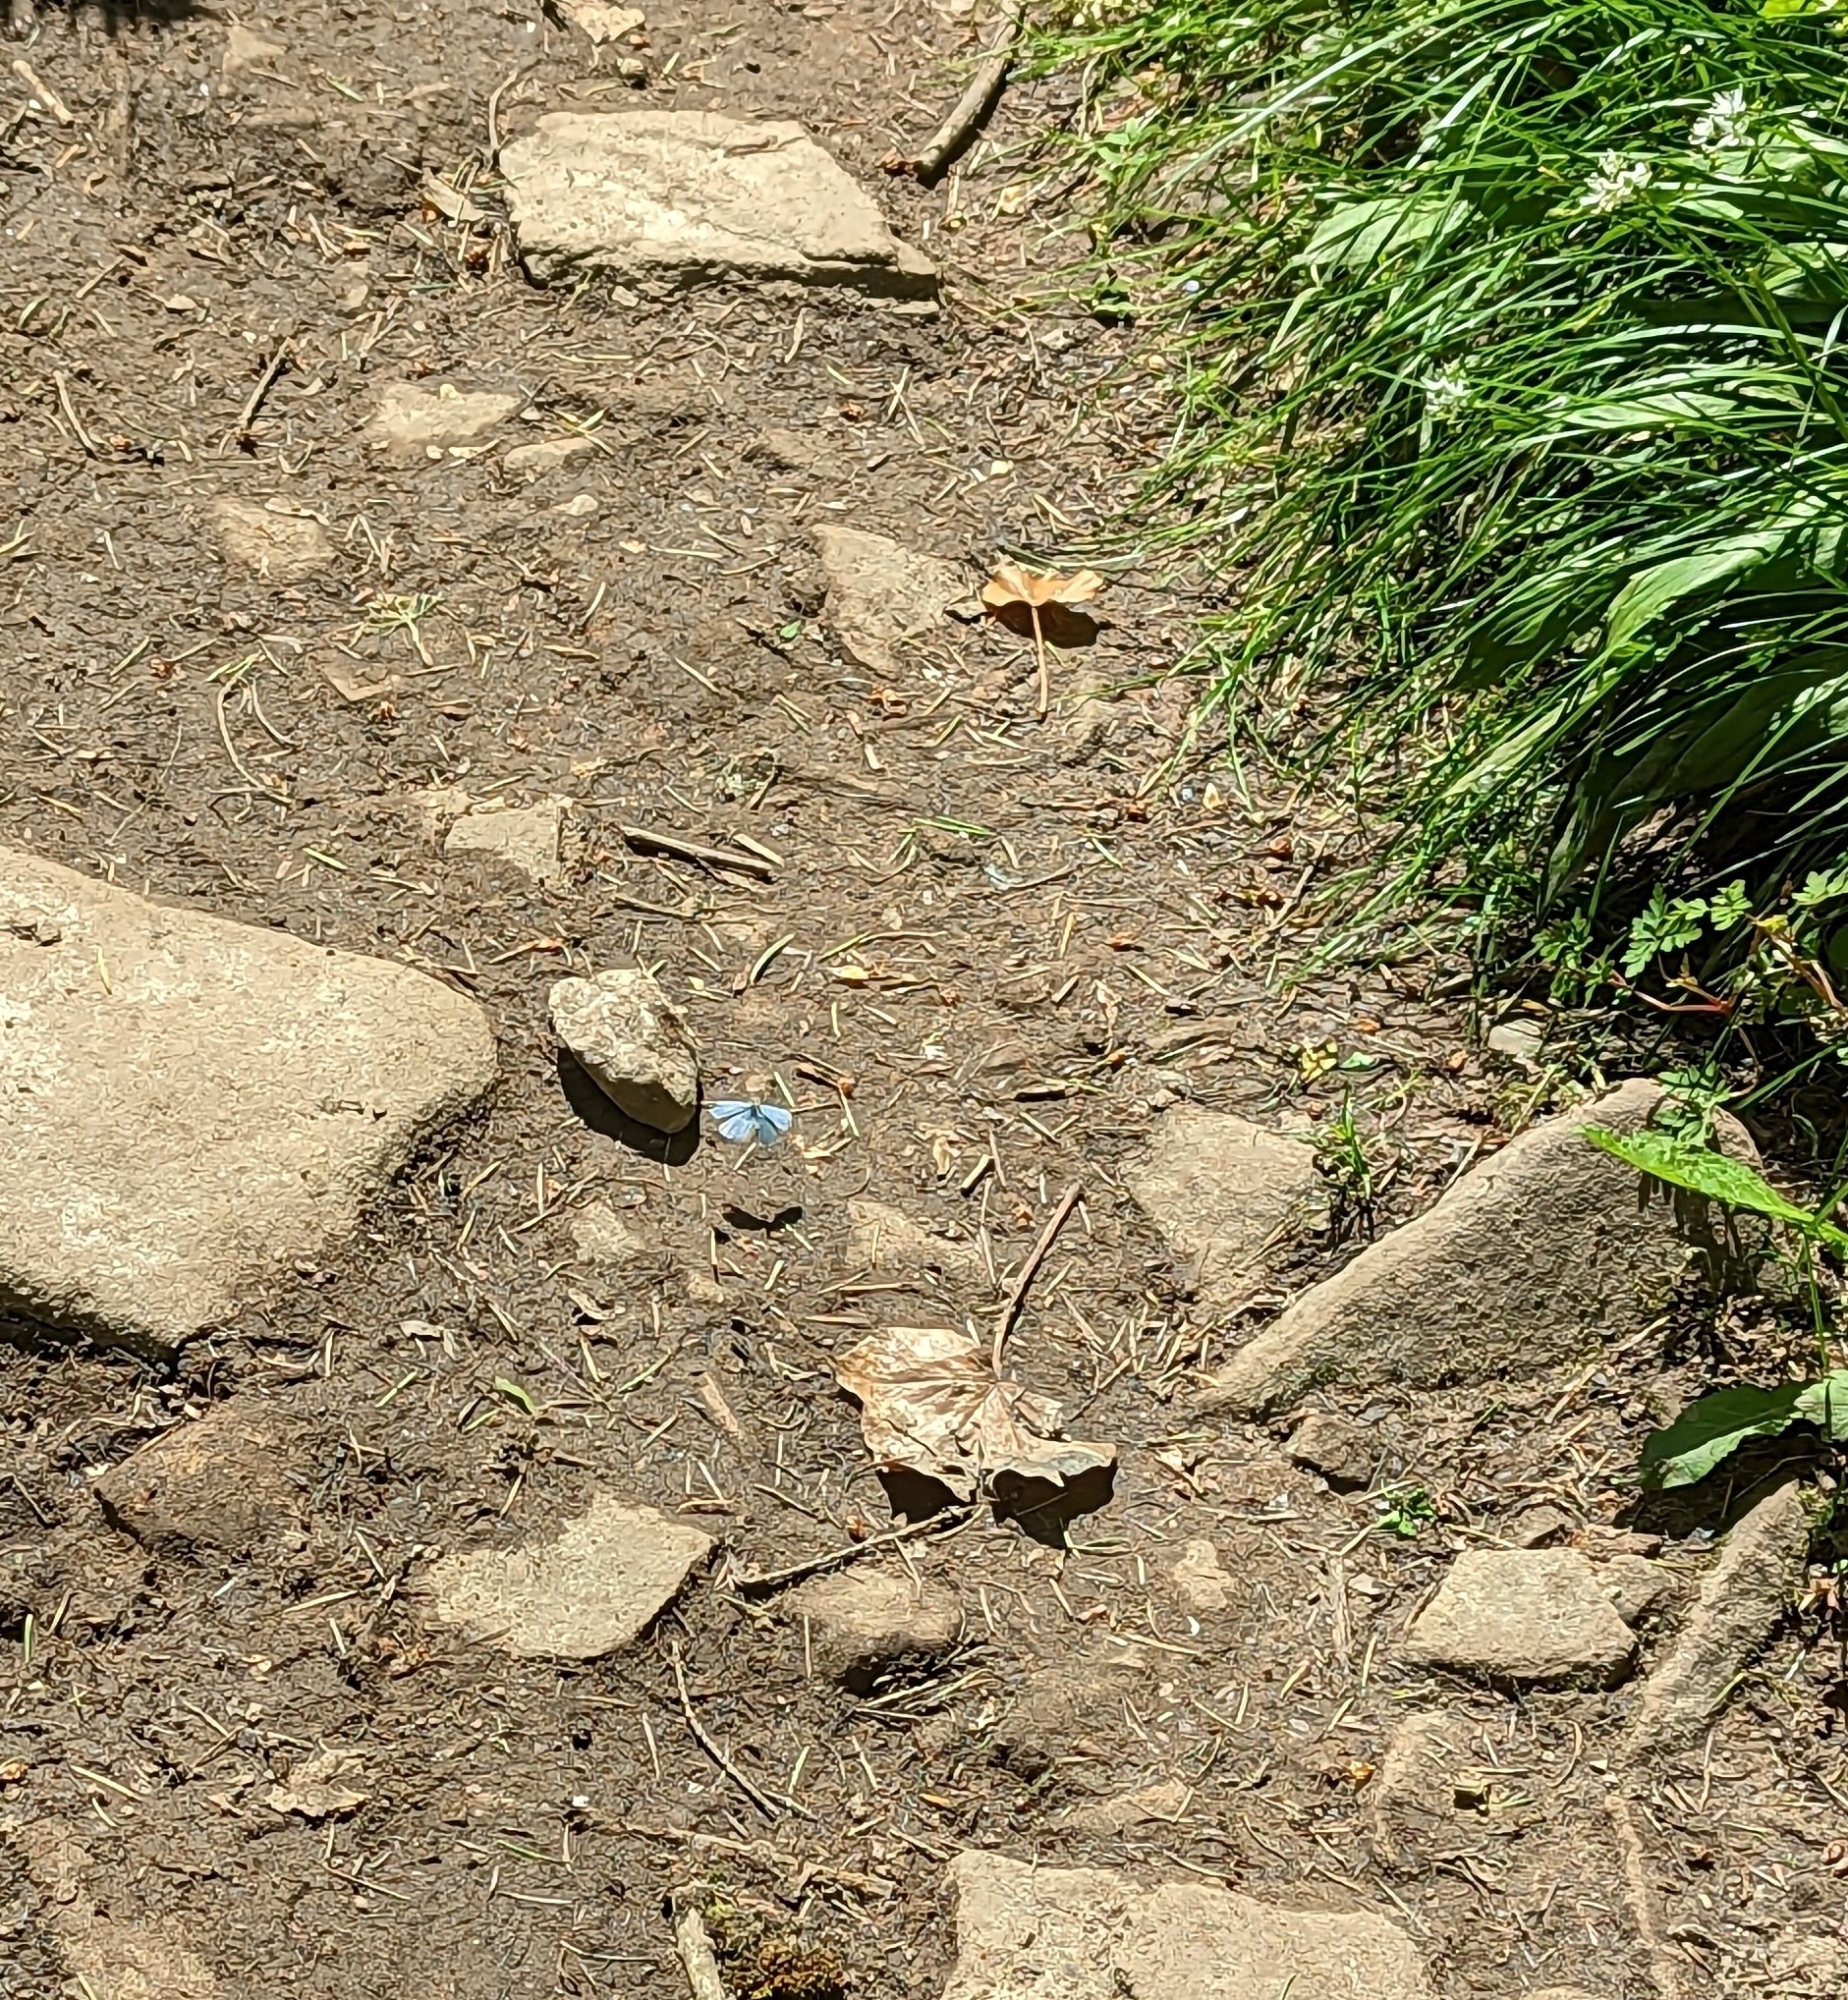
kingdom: Animalia
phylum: Arthropoda
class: Insecta
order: Lepidoptera
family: Lycaenidae
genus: Celastrina
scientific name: Celastrina argiolus
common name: Holly blue
